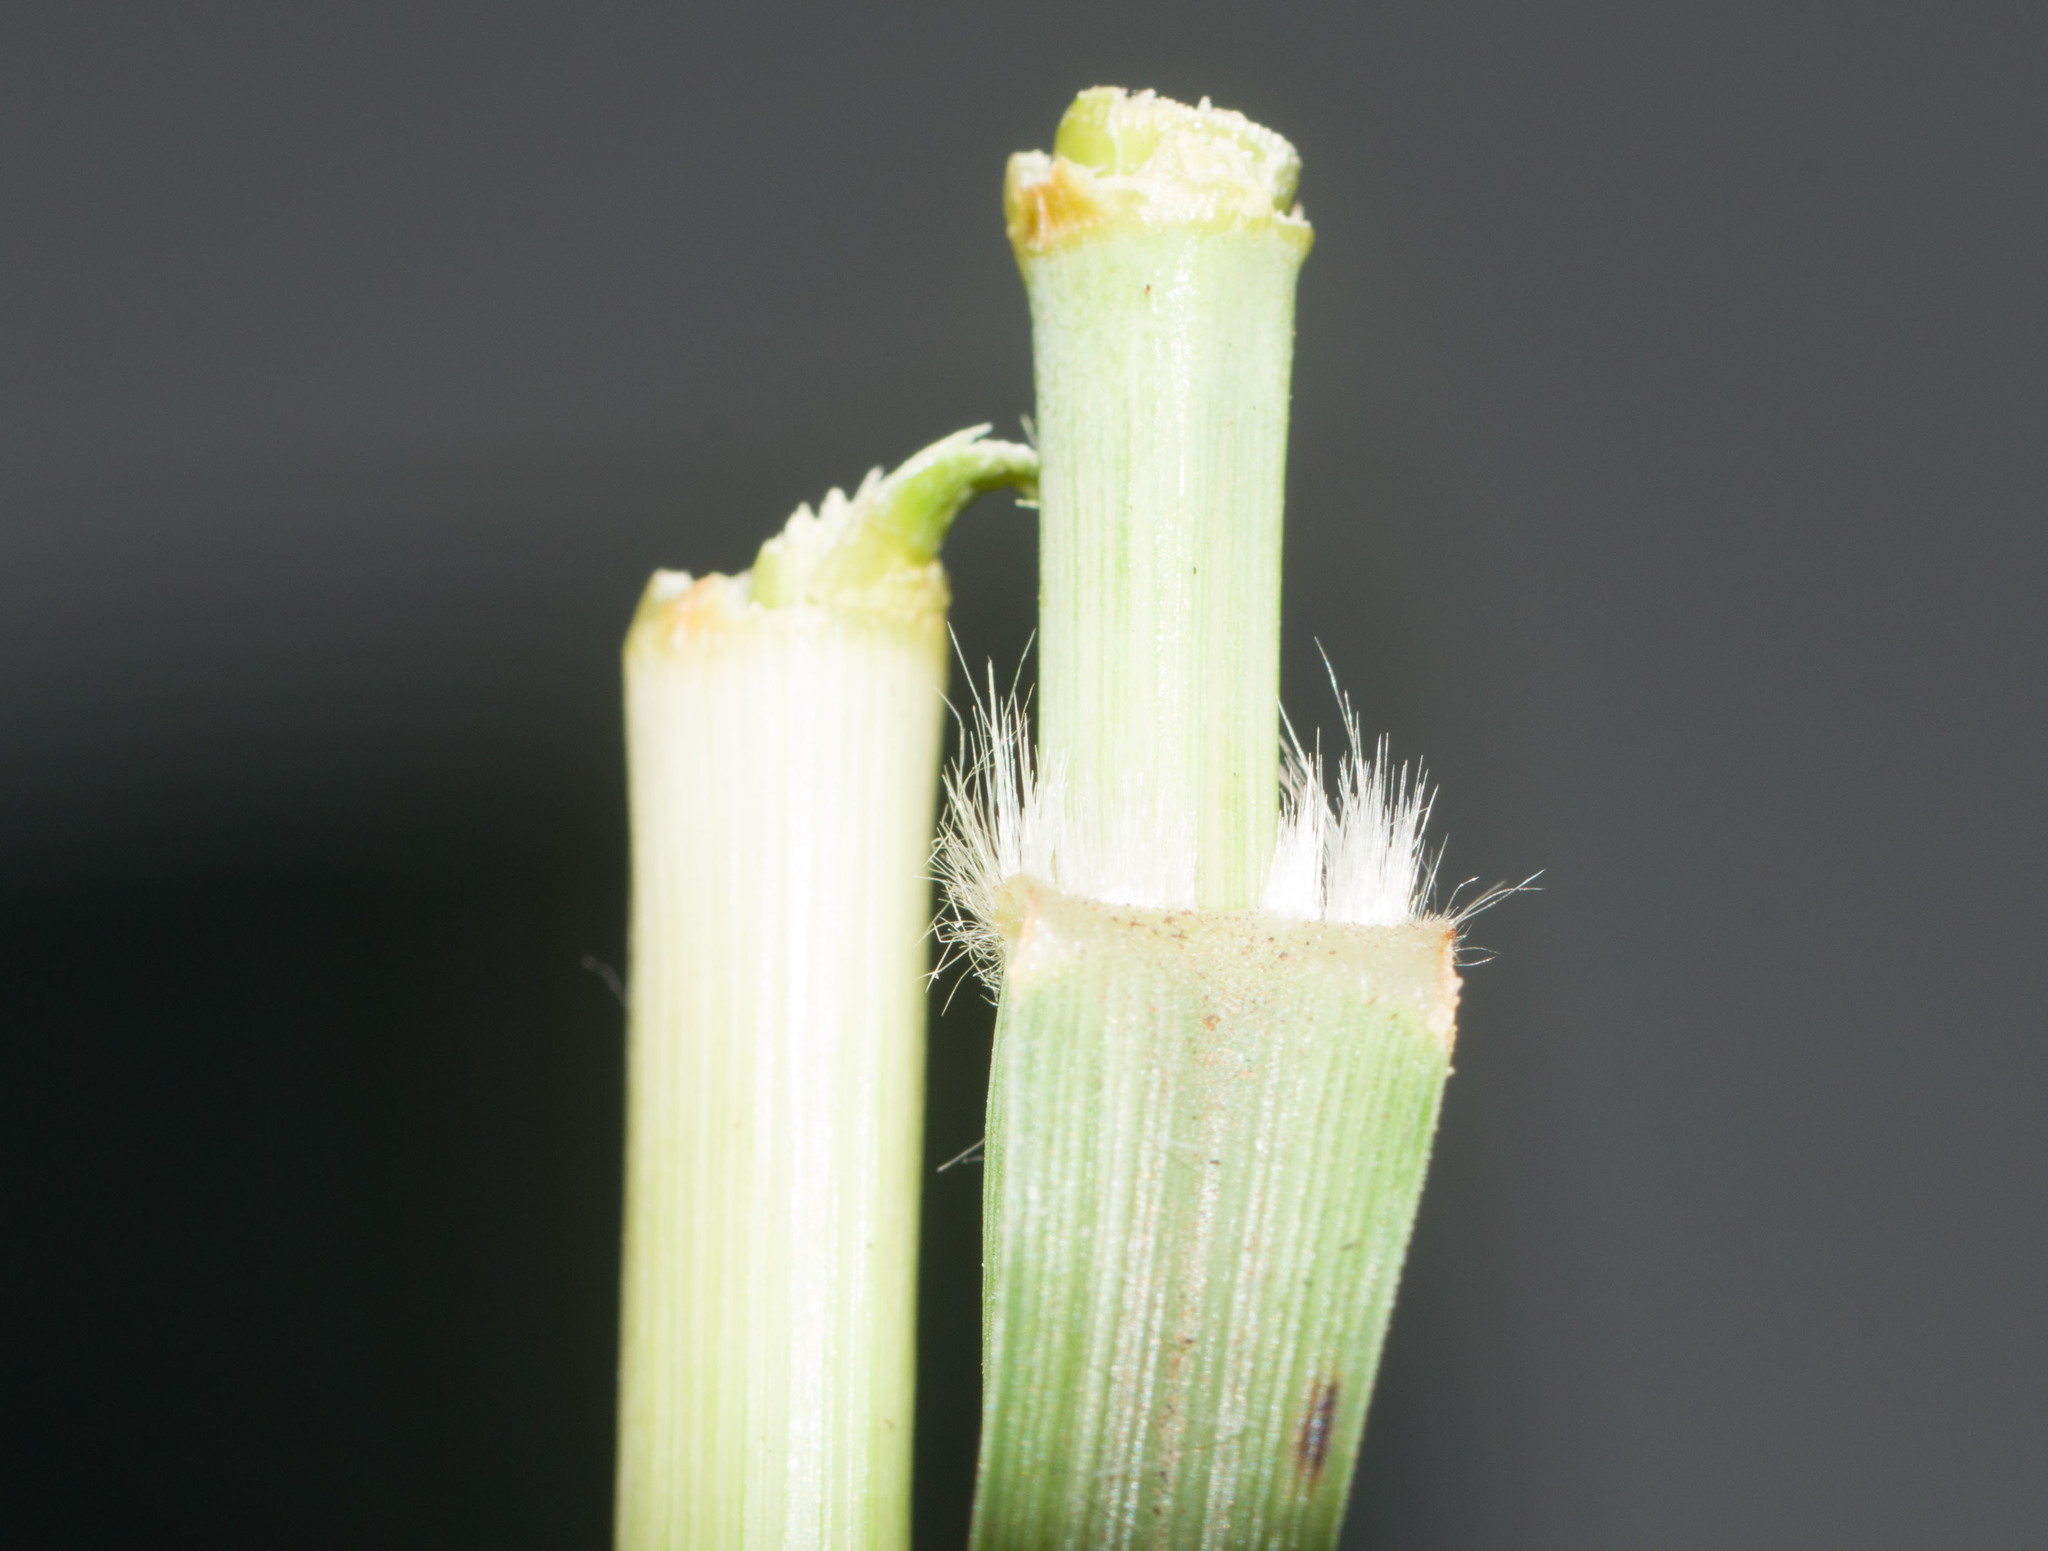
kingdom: Plantae
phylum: Tracheophyta
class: Liliopsida
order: Poales
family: Poaceae
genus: Cenchrus
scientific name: Cenchrus
